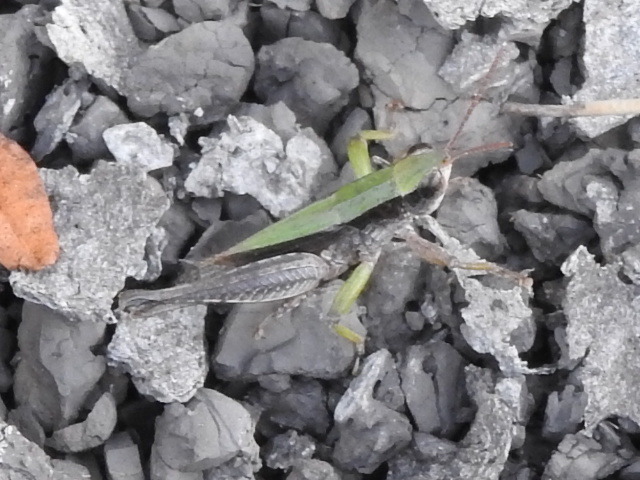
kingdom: Animalia
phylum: Arthropoda
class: Insecta
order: Orthoptera
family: Acrididae
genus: Dichromorpha
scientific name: Dichromorpha viridis
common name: Short-winged green grasshopper
